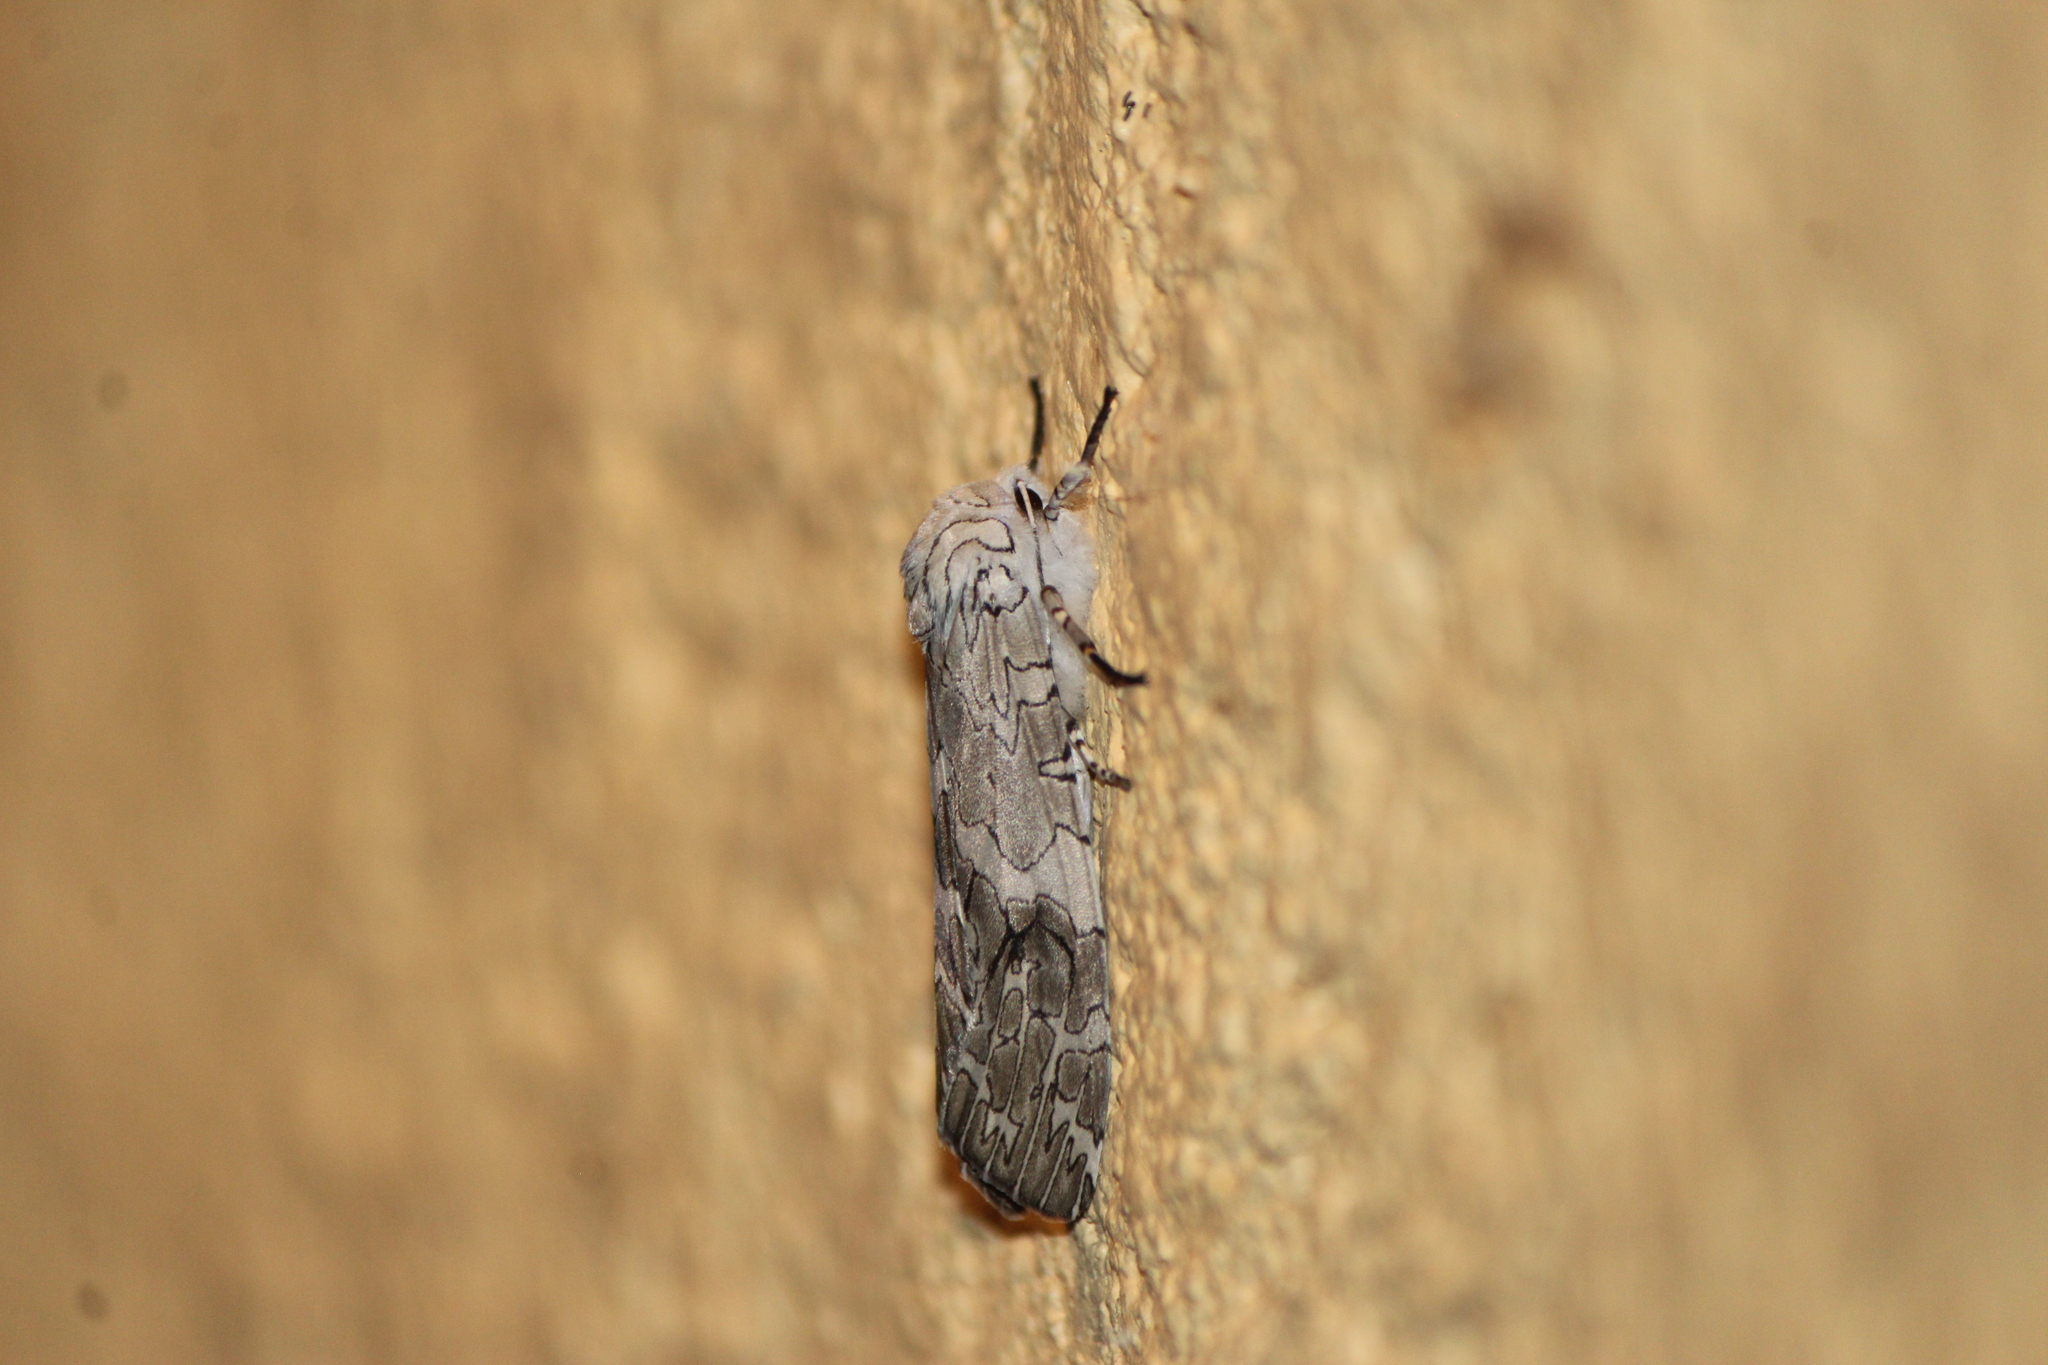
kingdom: Animalia
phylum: Arthropoda
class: Insecta
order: Lepidoptera
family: Erebidae
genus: Hypercompe
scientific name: Hypercompe suffusa
